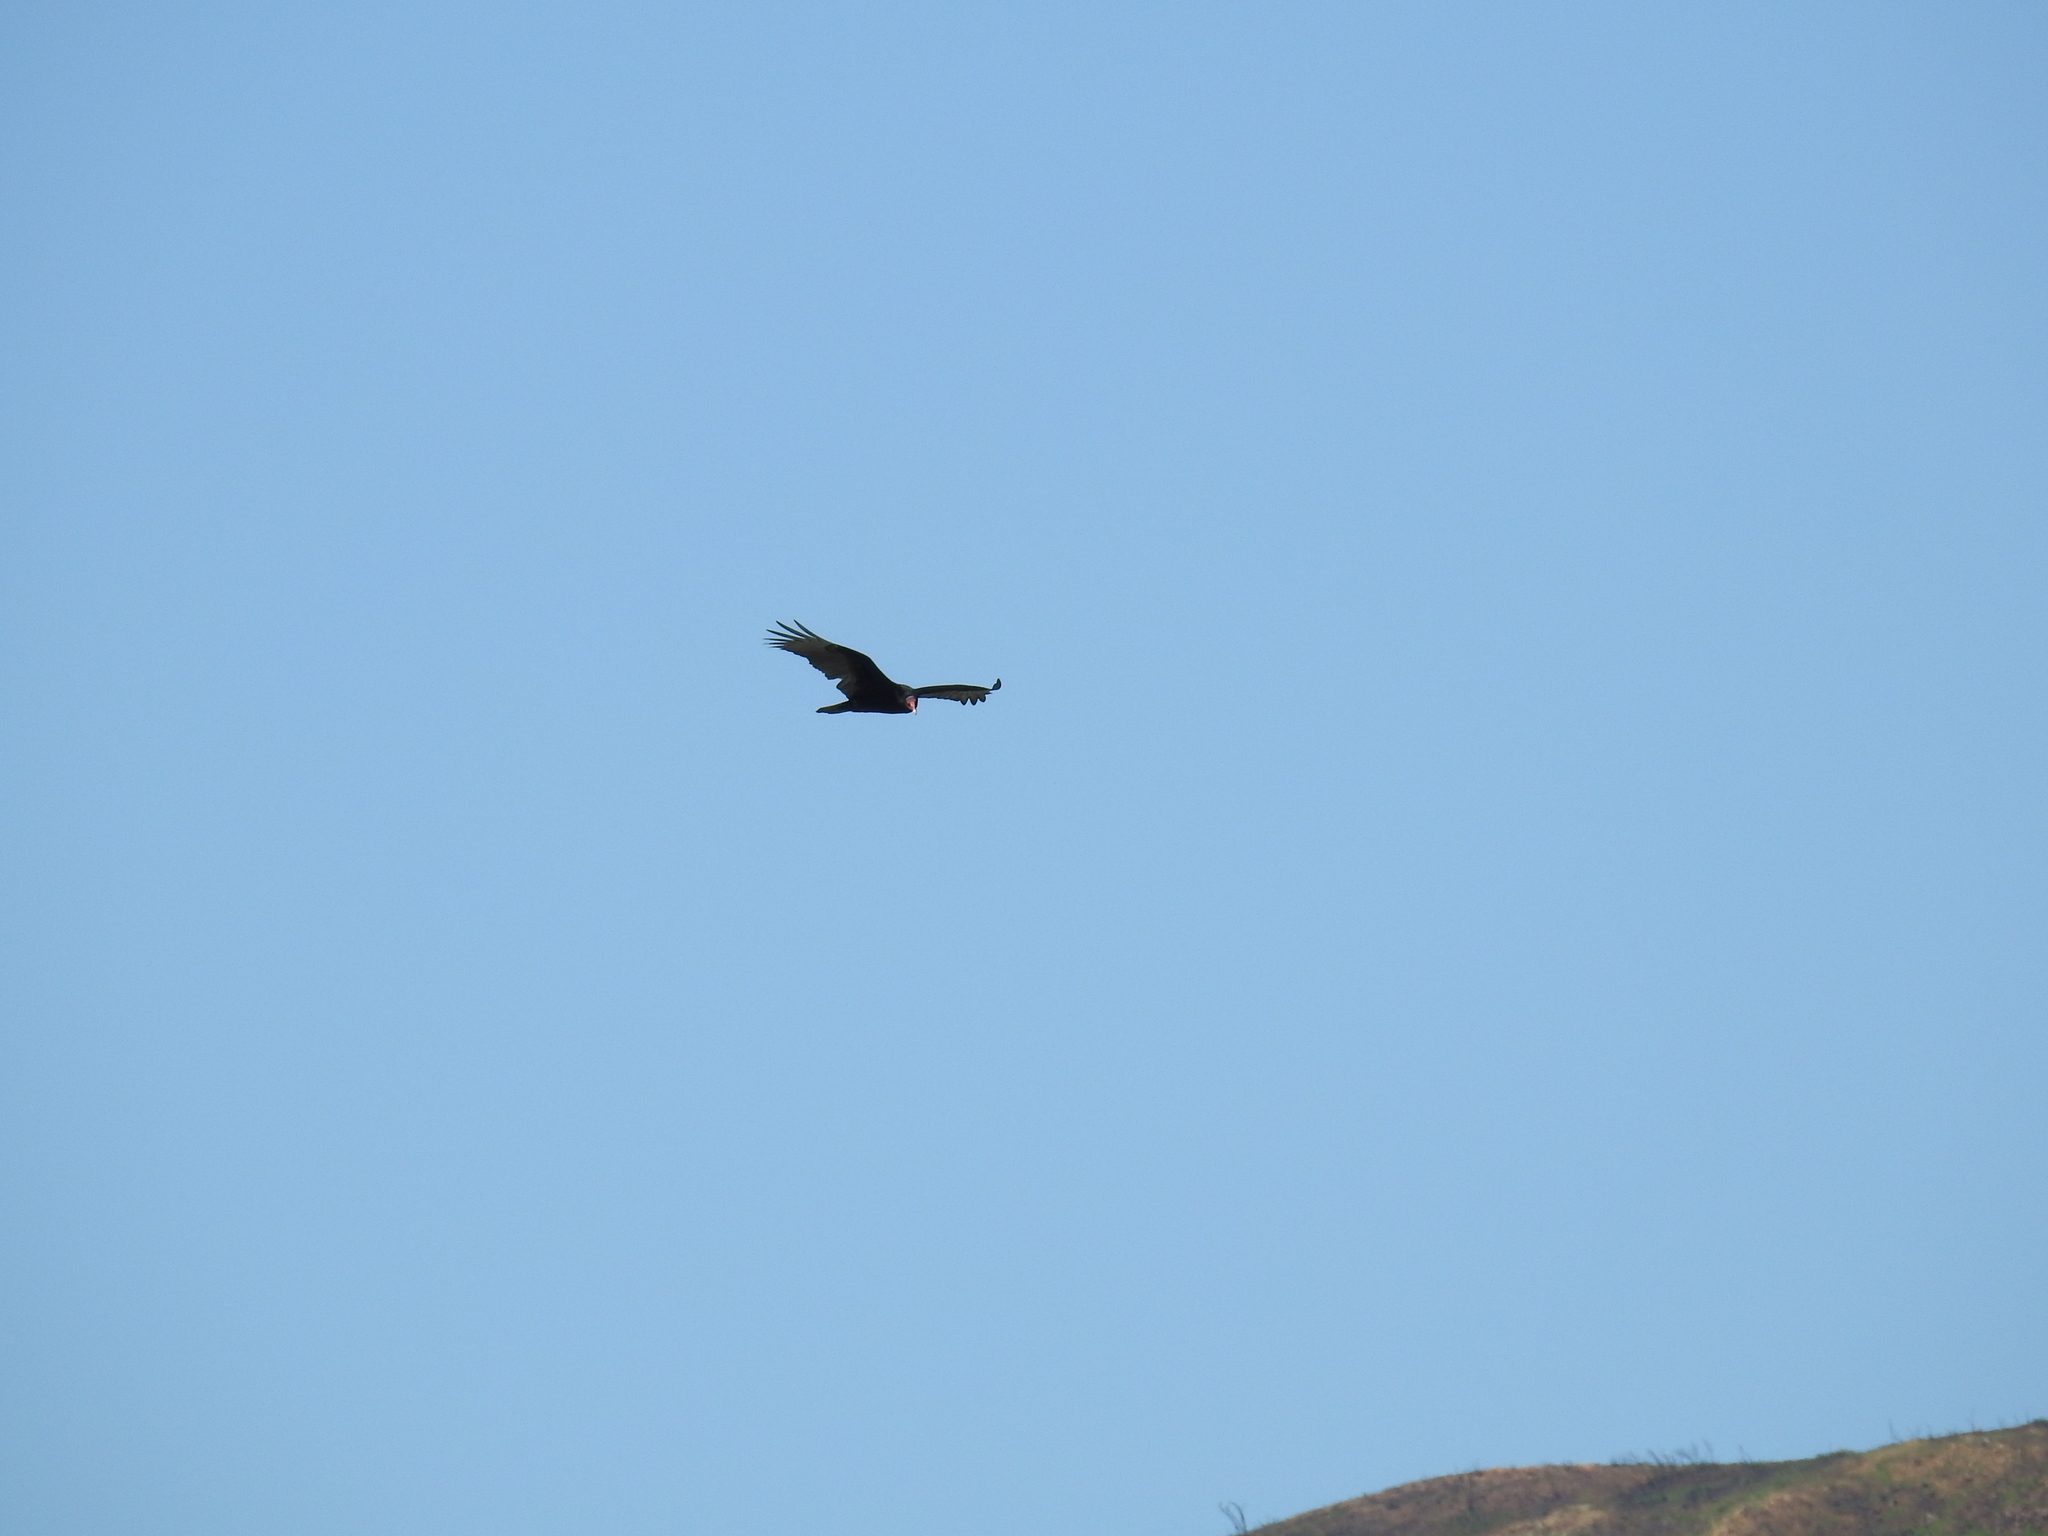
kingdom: Animalia
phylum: Chordata
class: Aves
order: Accipitriformes
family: Cathartidae
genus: Cathartes
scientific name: Cathartes aura
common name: Turkey vulture
